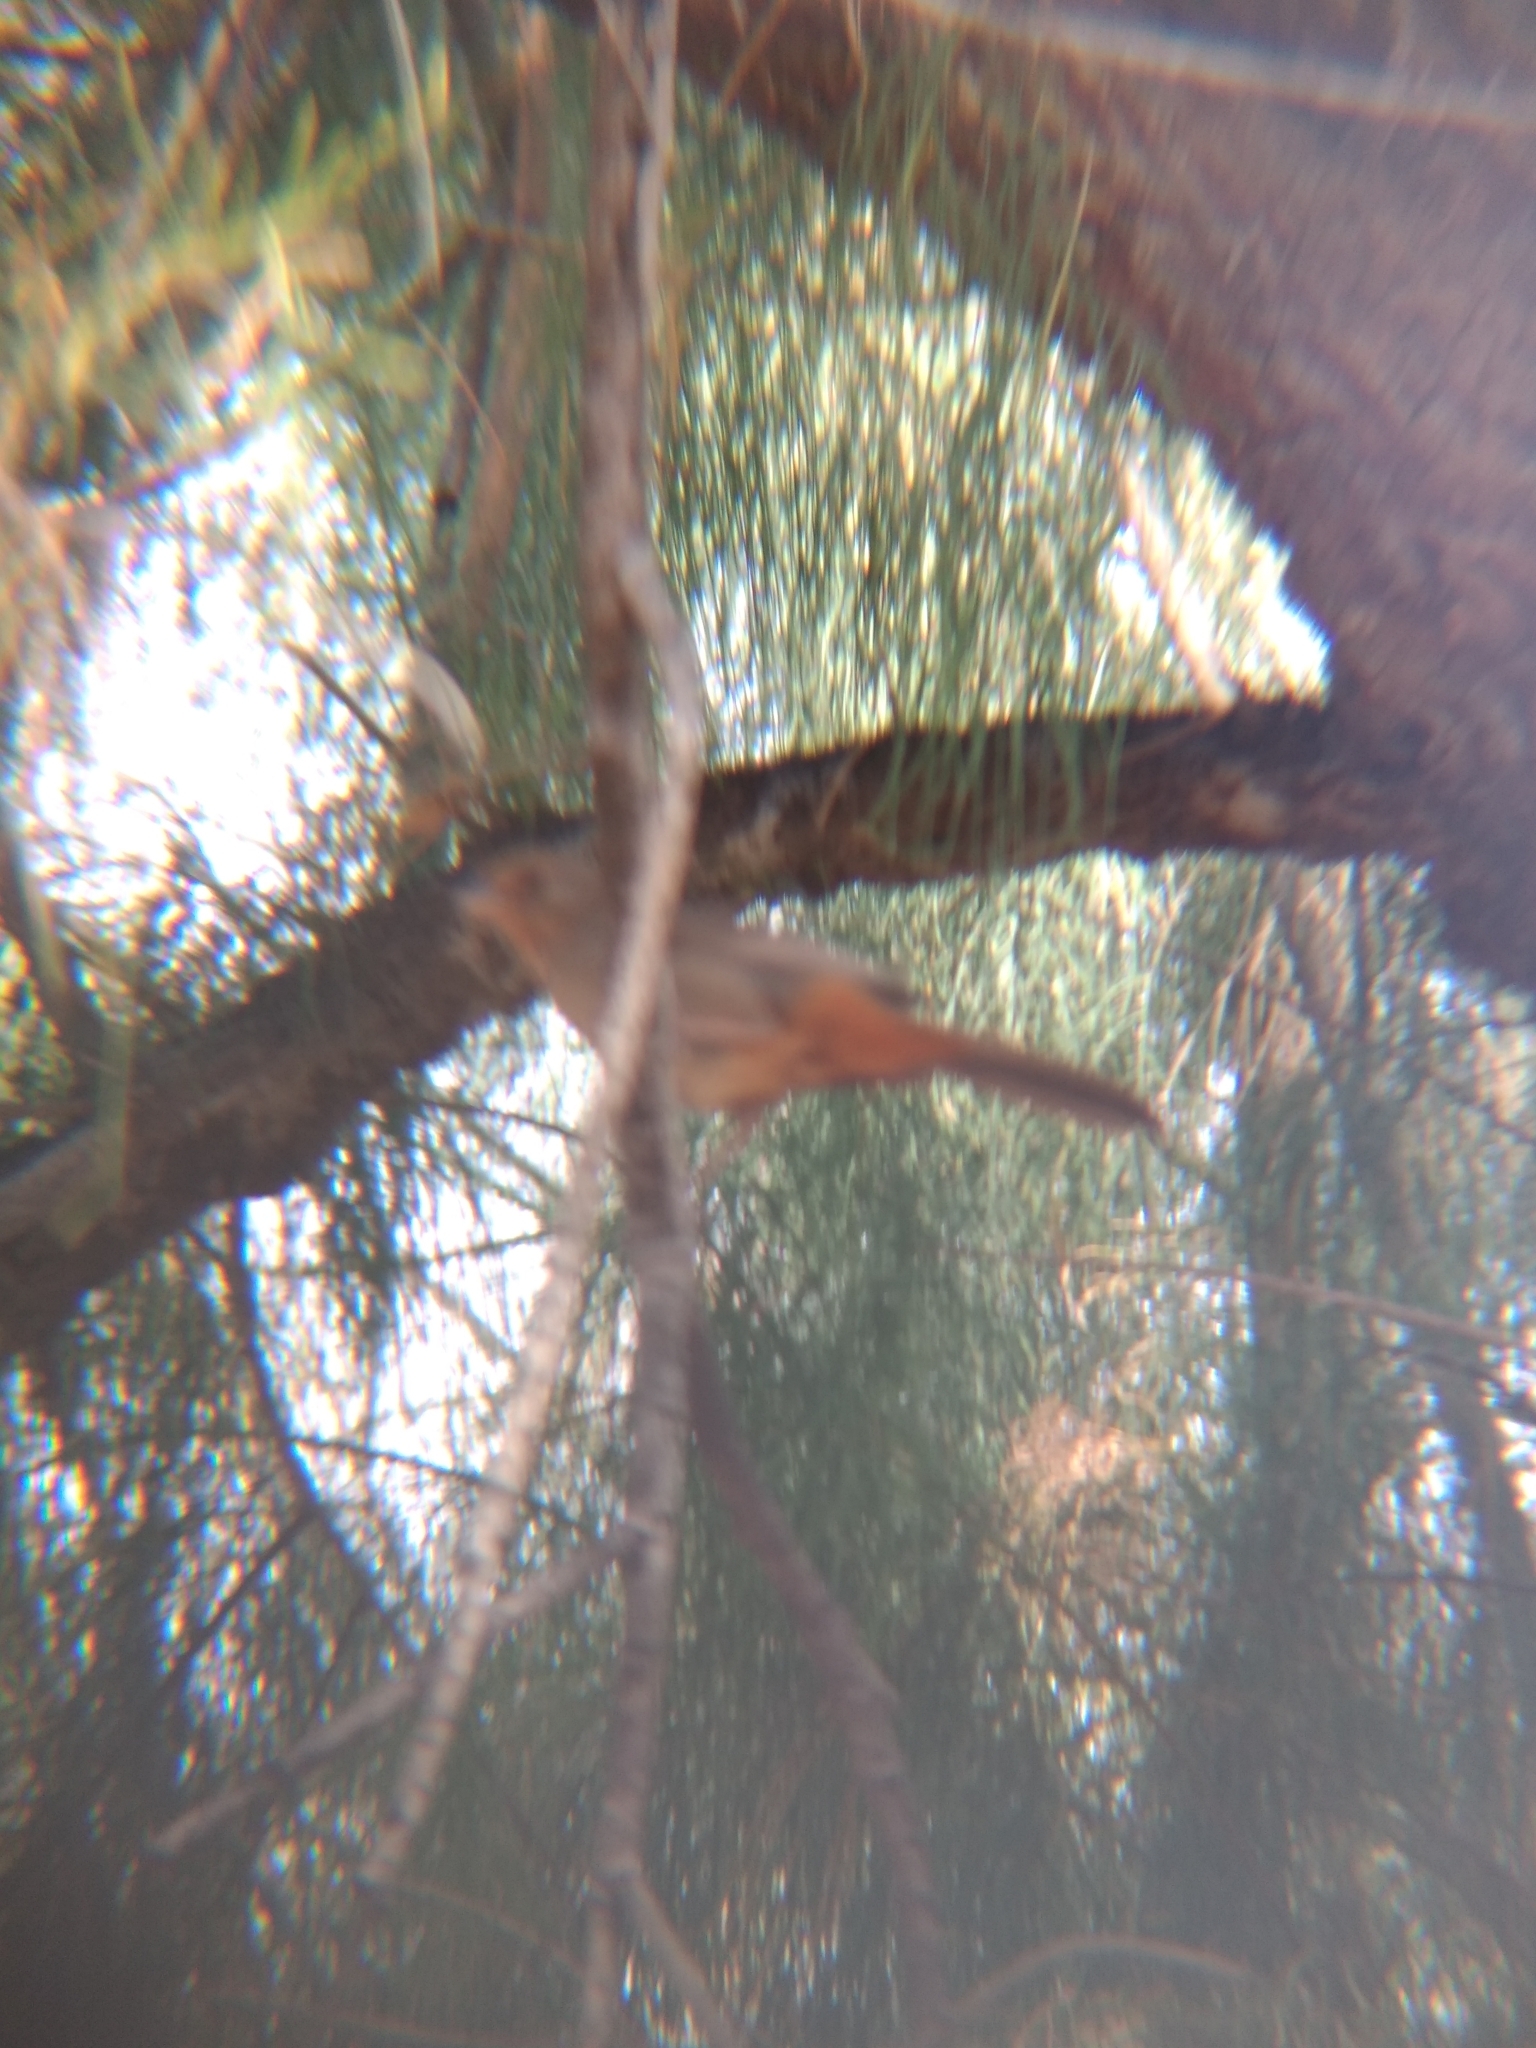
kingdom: Animalia
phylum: Chordata
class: Aves
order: Passeriformes
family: Passerellidae
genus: Melozone
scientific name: Melozone crissalis
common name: California towhee
